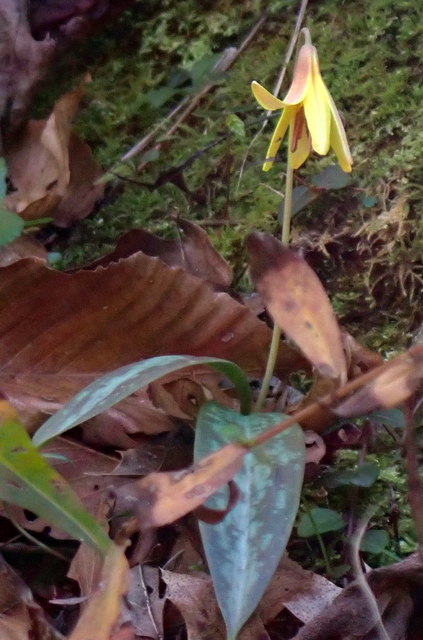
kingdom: Plantae
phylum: Tracheophyta
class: Liliopsida
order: Liliales
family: Liliaceae
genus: Erythronium
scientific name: Erythronium umbilicatum
